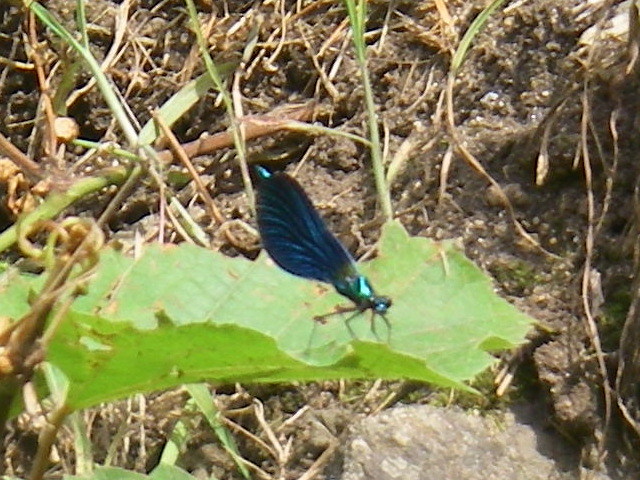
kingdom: Animalia
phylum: Arthropoda
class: Insecta
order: Odonata
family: Calopterygidae
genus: Calopteryx
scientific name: Calopteryx virgo
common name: Beautiful demoiselle
